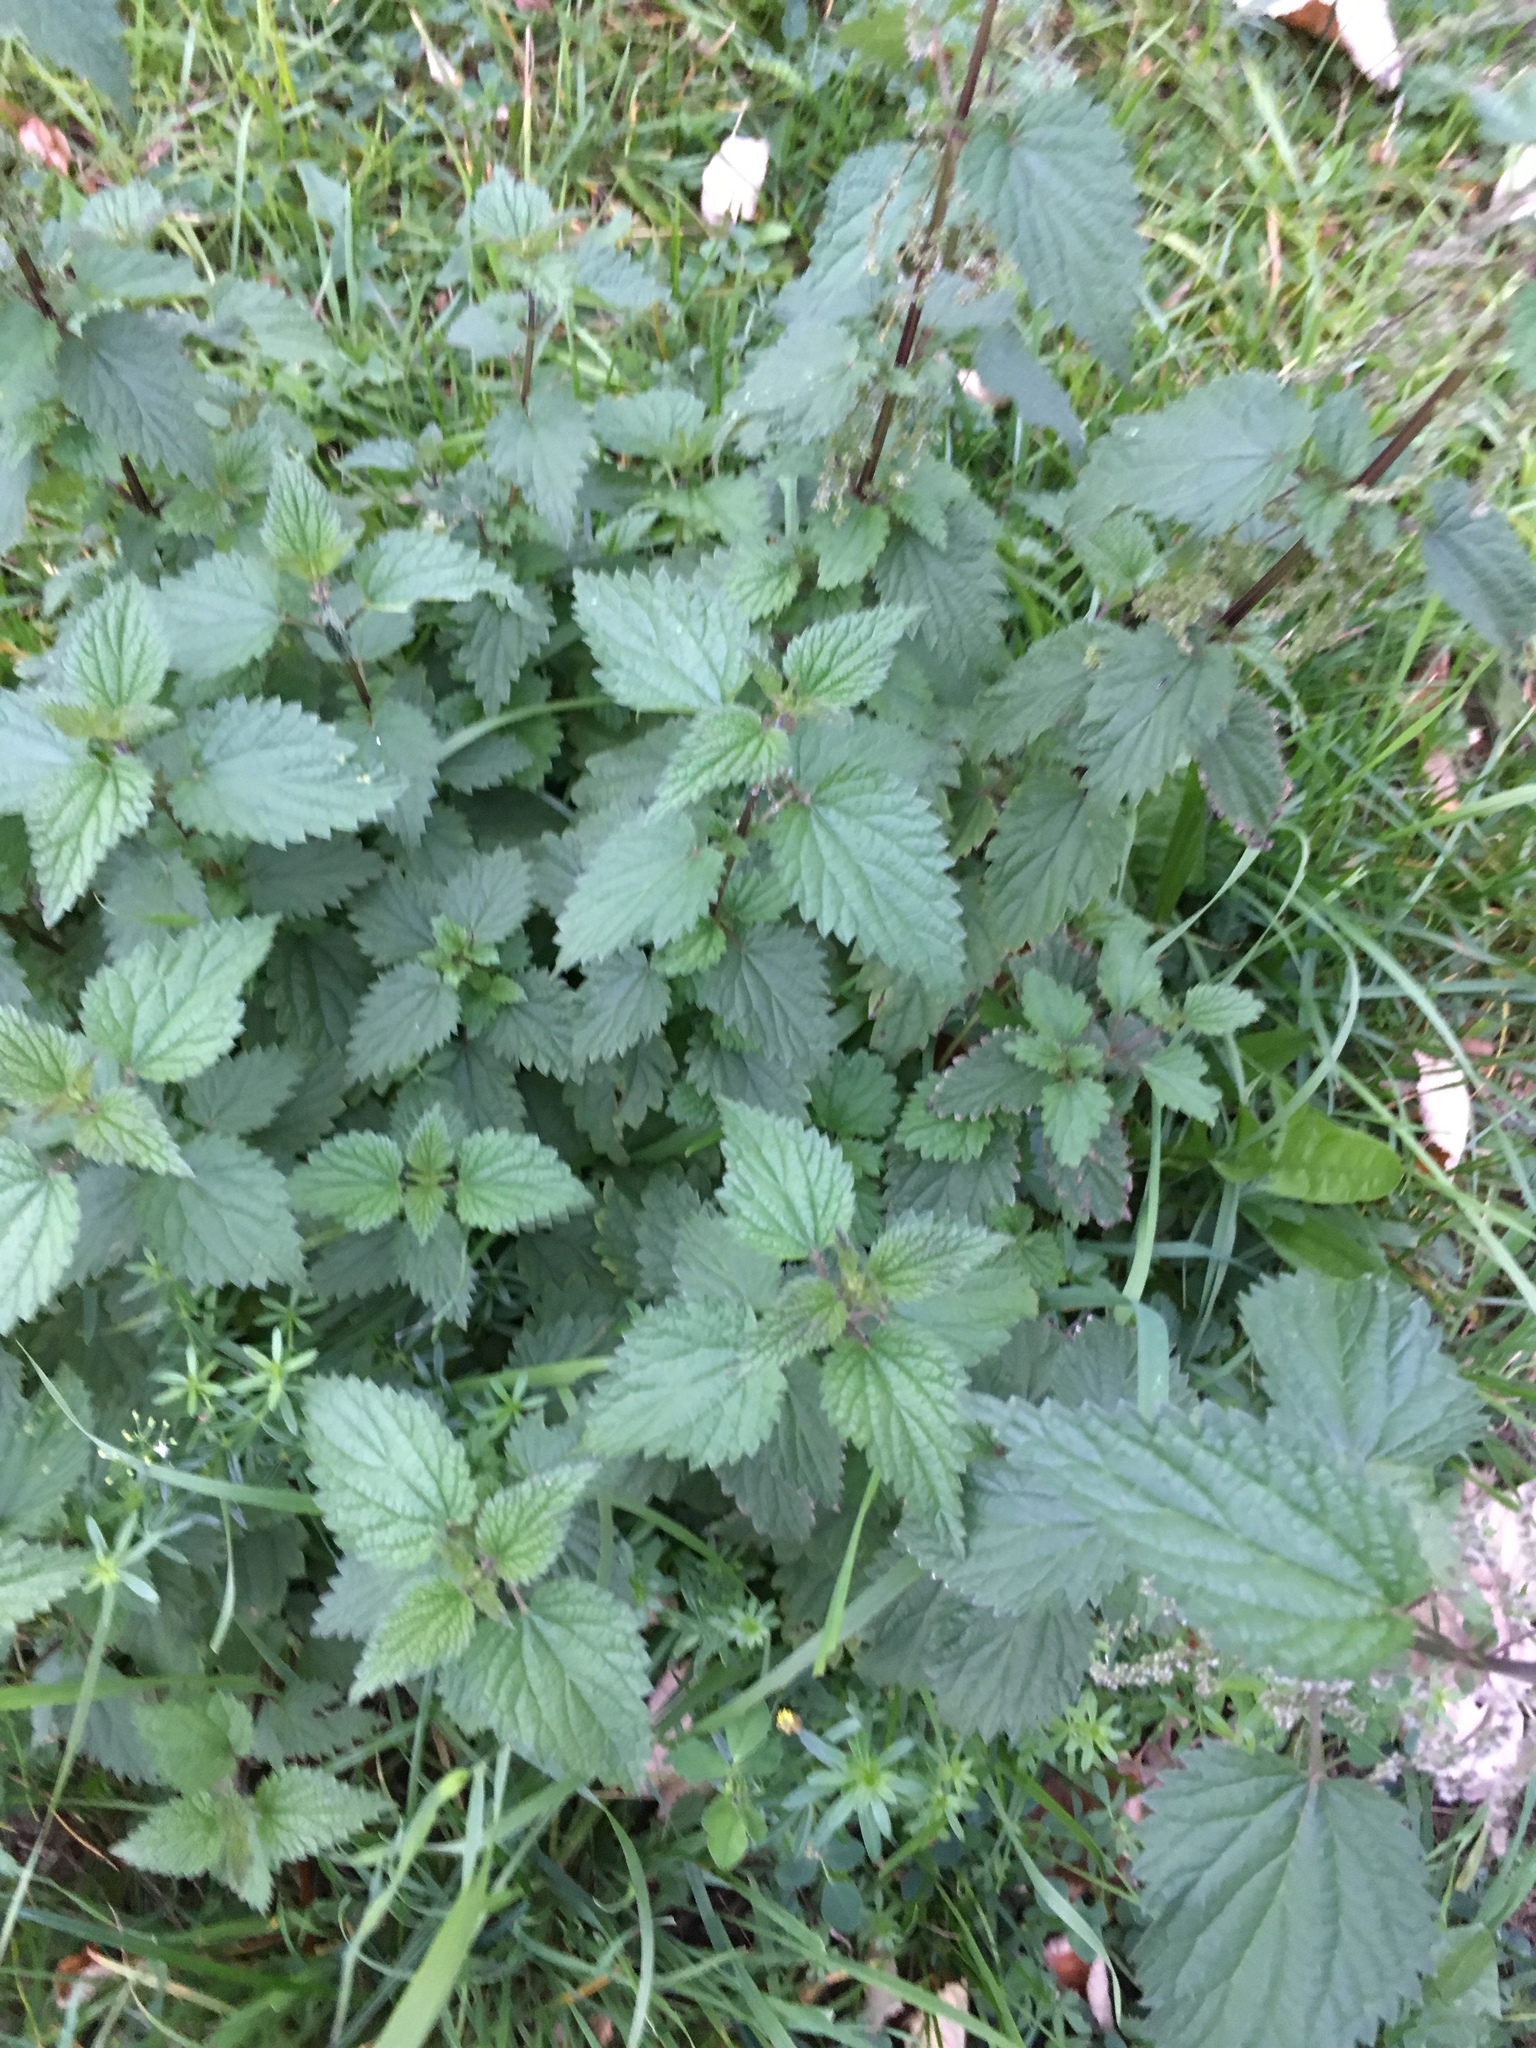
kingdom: Plantae
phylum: Tracheophyta
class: Magnoliopsida
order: Rosales
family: Urticaceae
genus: Urtica
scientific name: Urtica dioica
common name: Common nettle
